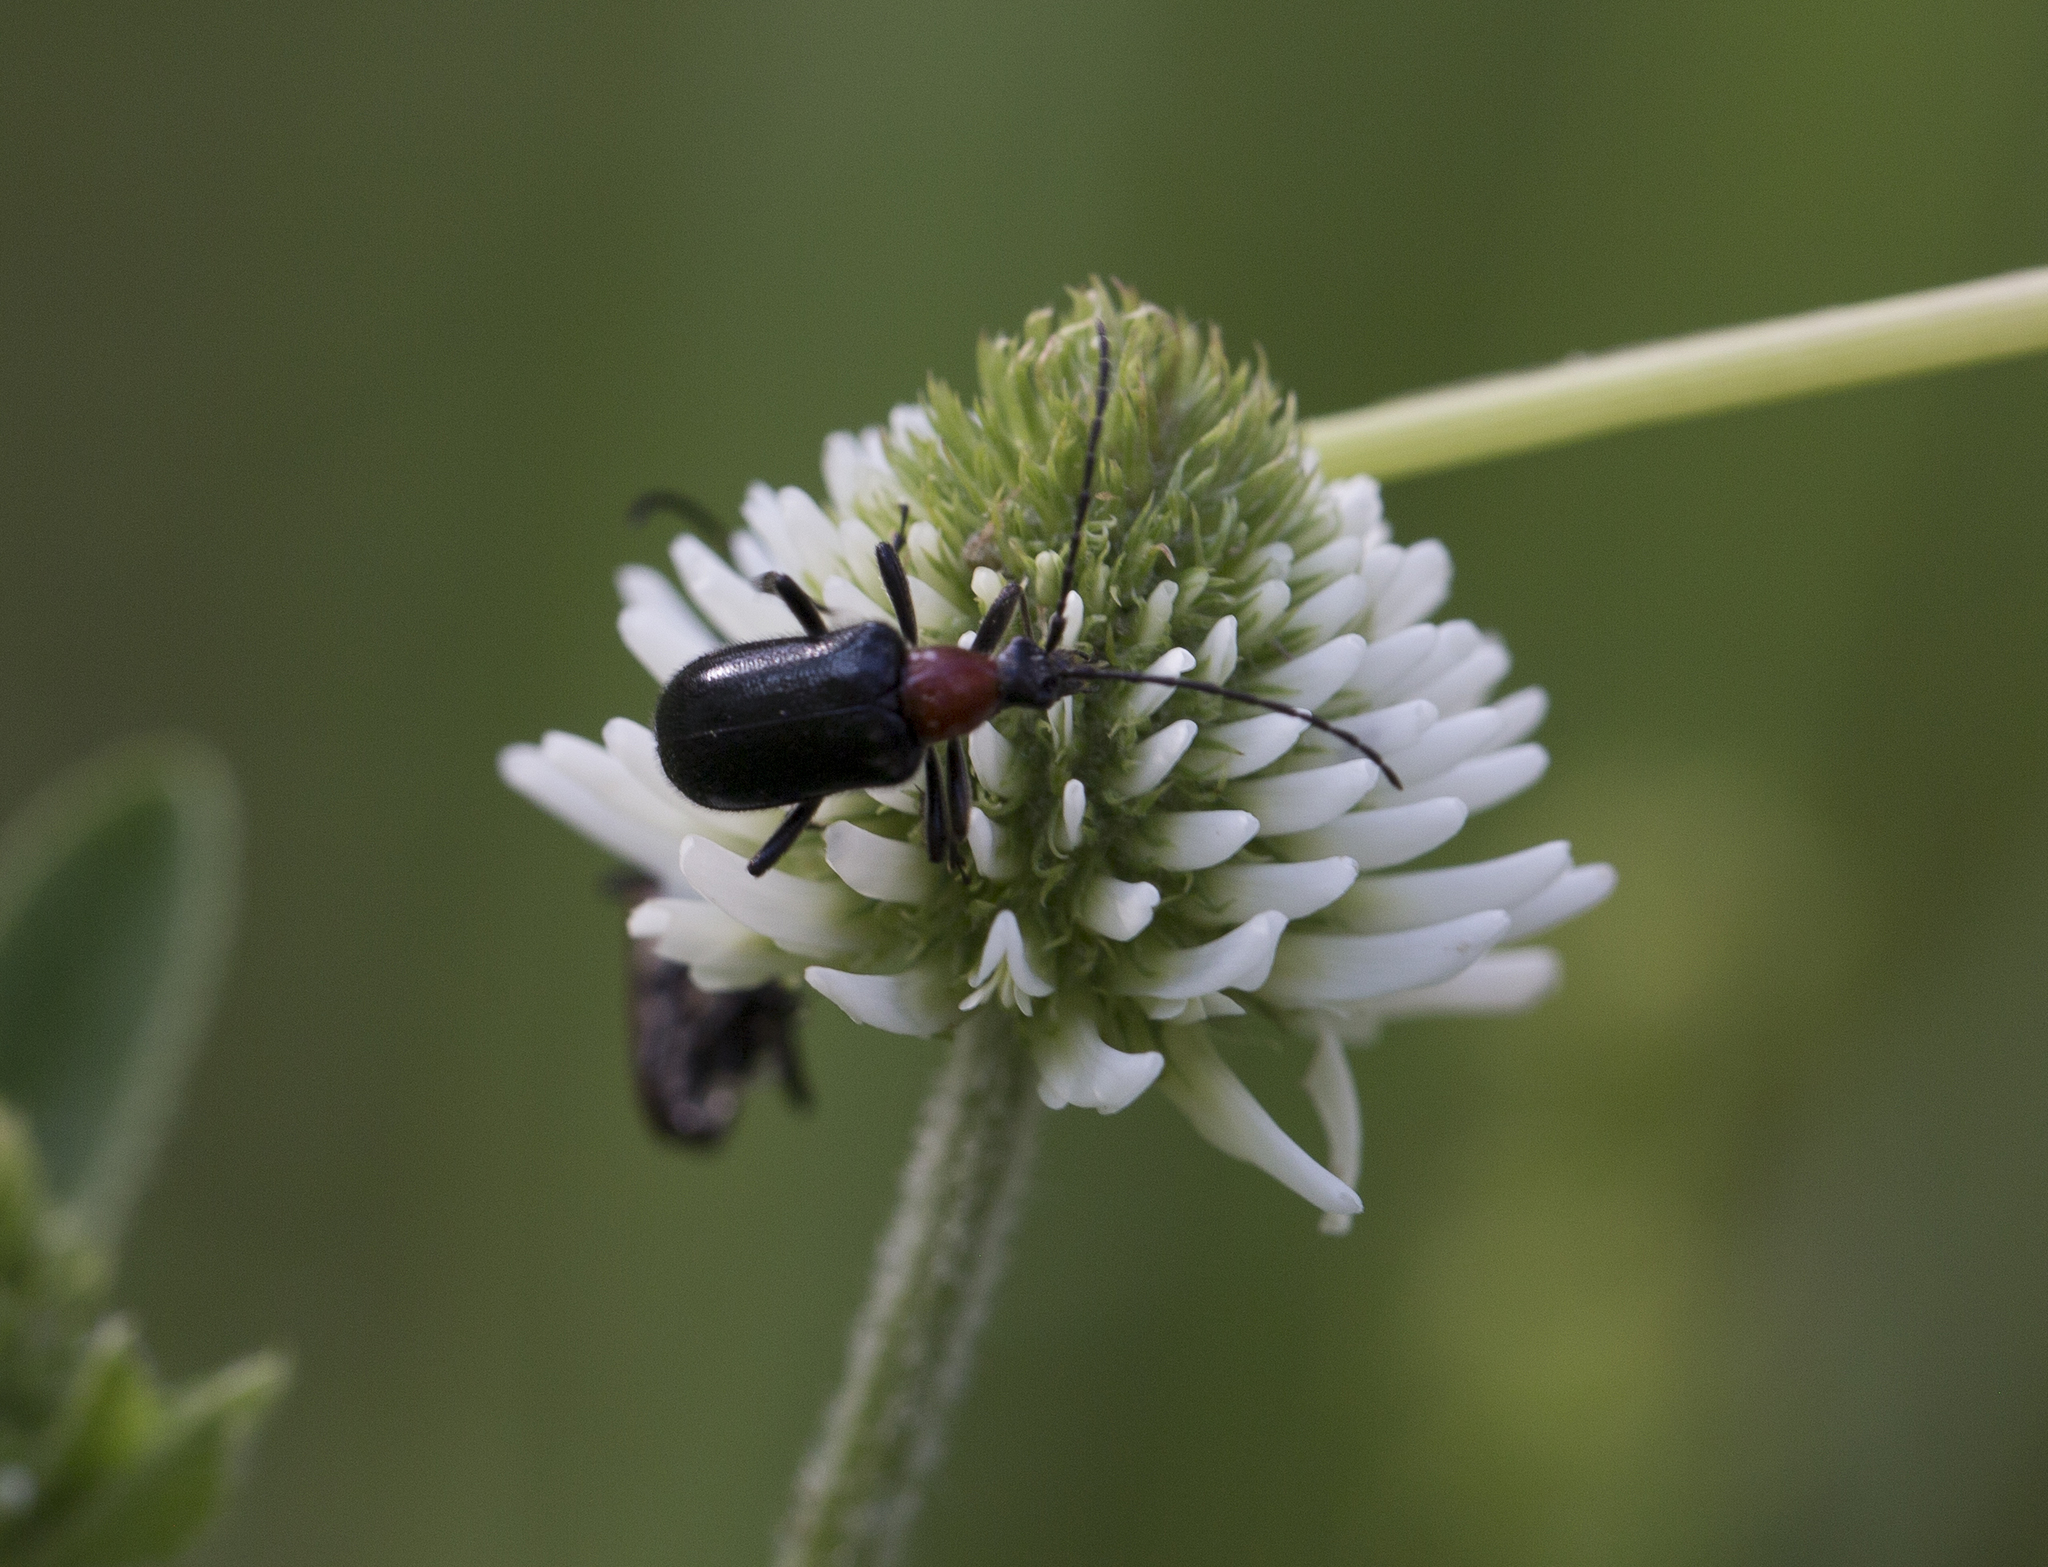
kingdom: Animalia
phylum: Arthropoda
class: Insecta
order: Coleoptera
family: Cerambycidae
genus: Dinoptera
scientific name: Dinoptera collaris
